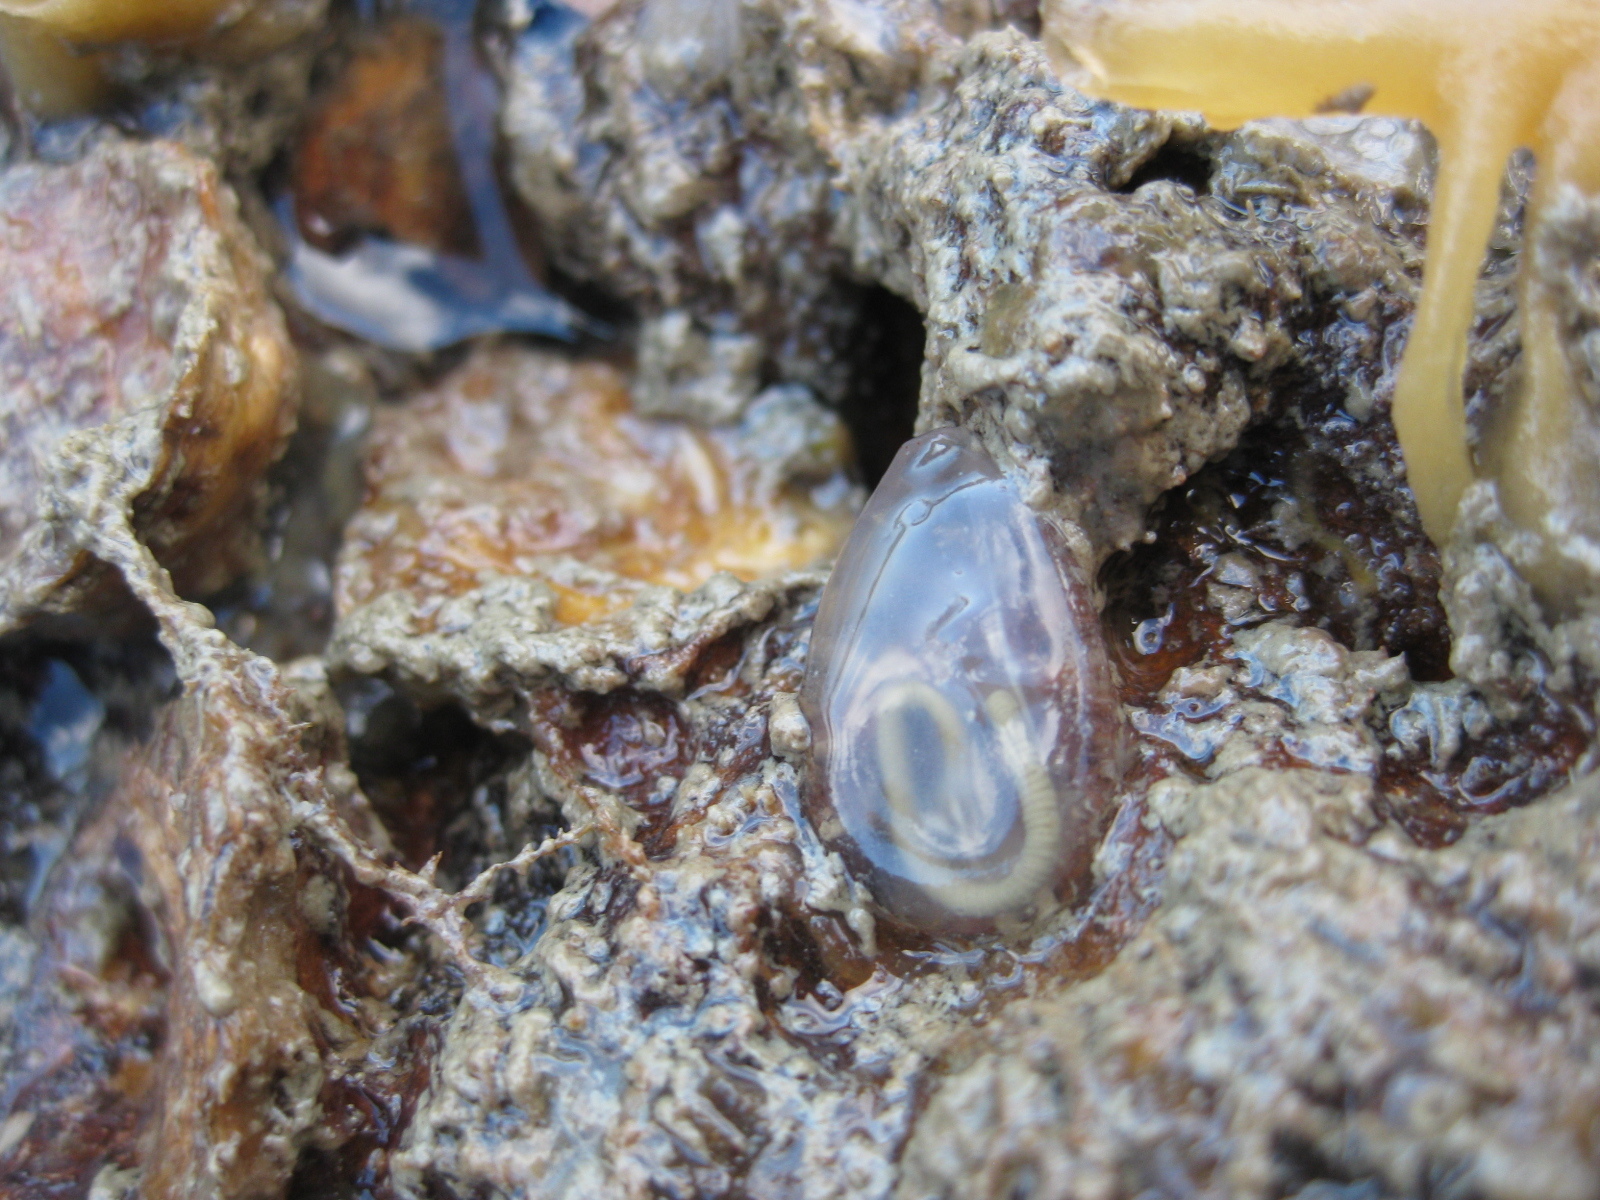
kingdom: Animalia
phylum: Chordata
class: Ascidiacea
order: Phlebobranchia
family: Agneziidae
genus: Agnezia
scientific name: Agnezia glaciata
